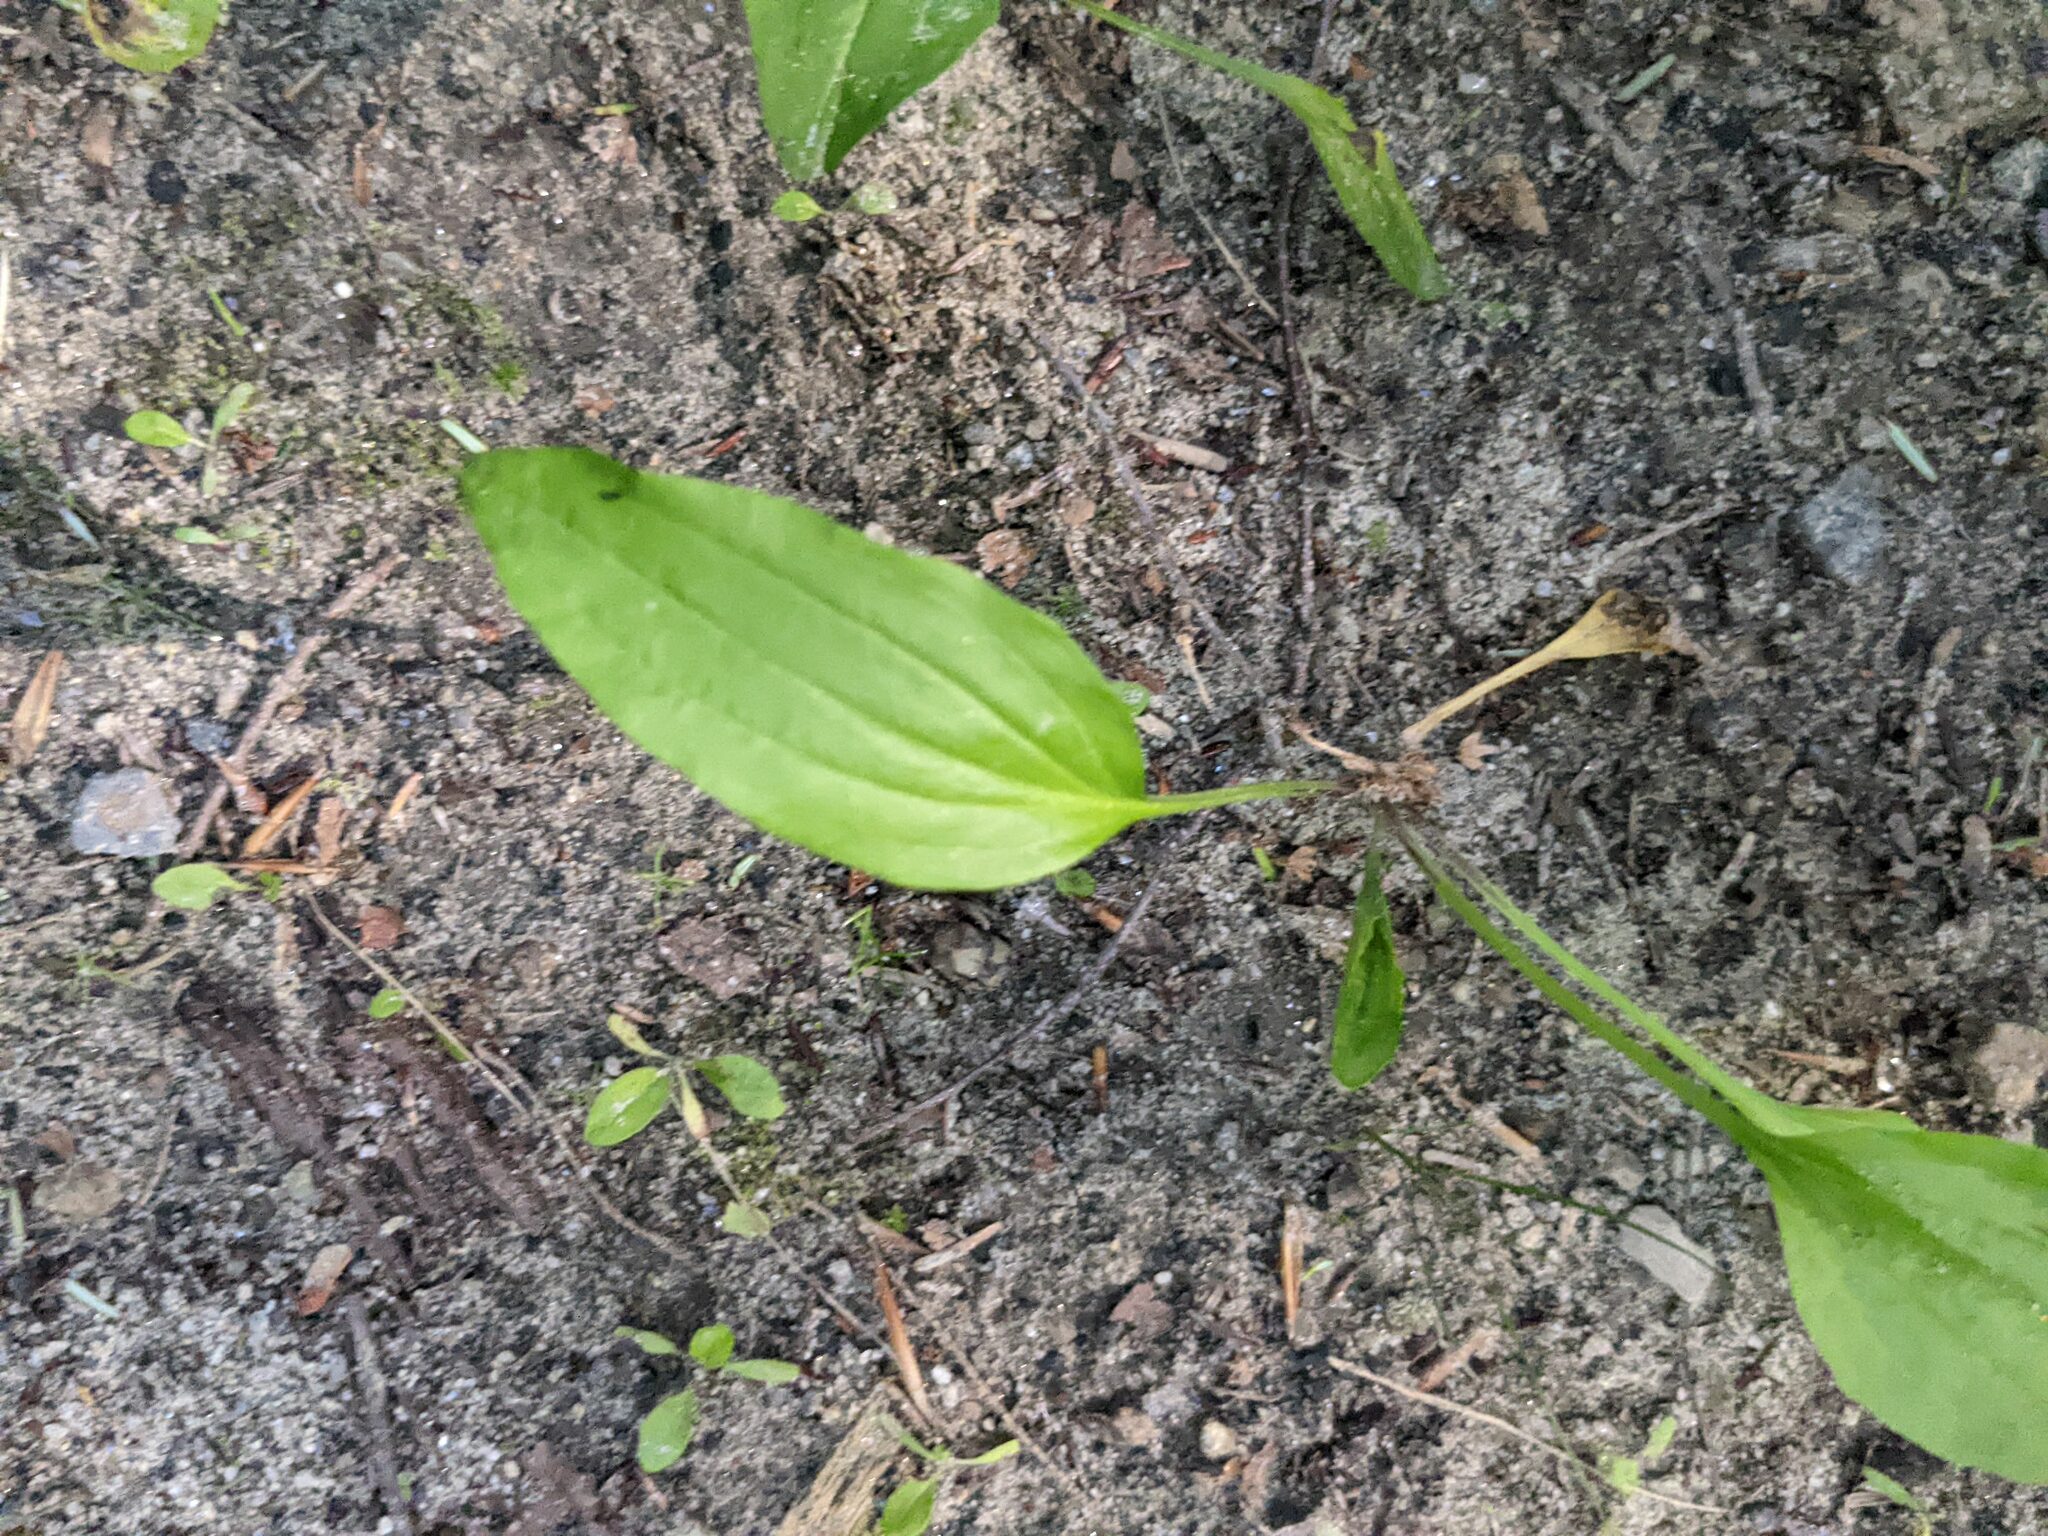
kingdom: Plantae
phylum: Tracheophyta
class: Magnoliopsida
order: Lamiales
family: Plantaginaceae
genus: Plantago
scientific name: Plantago rugelii
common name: American plantain
